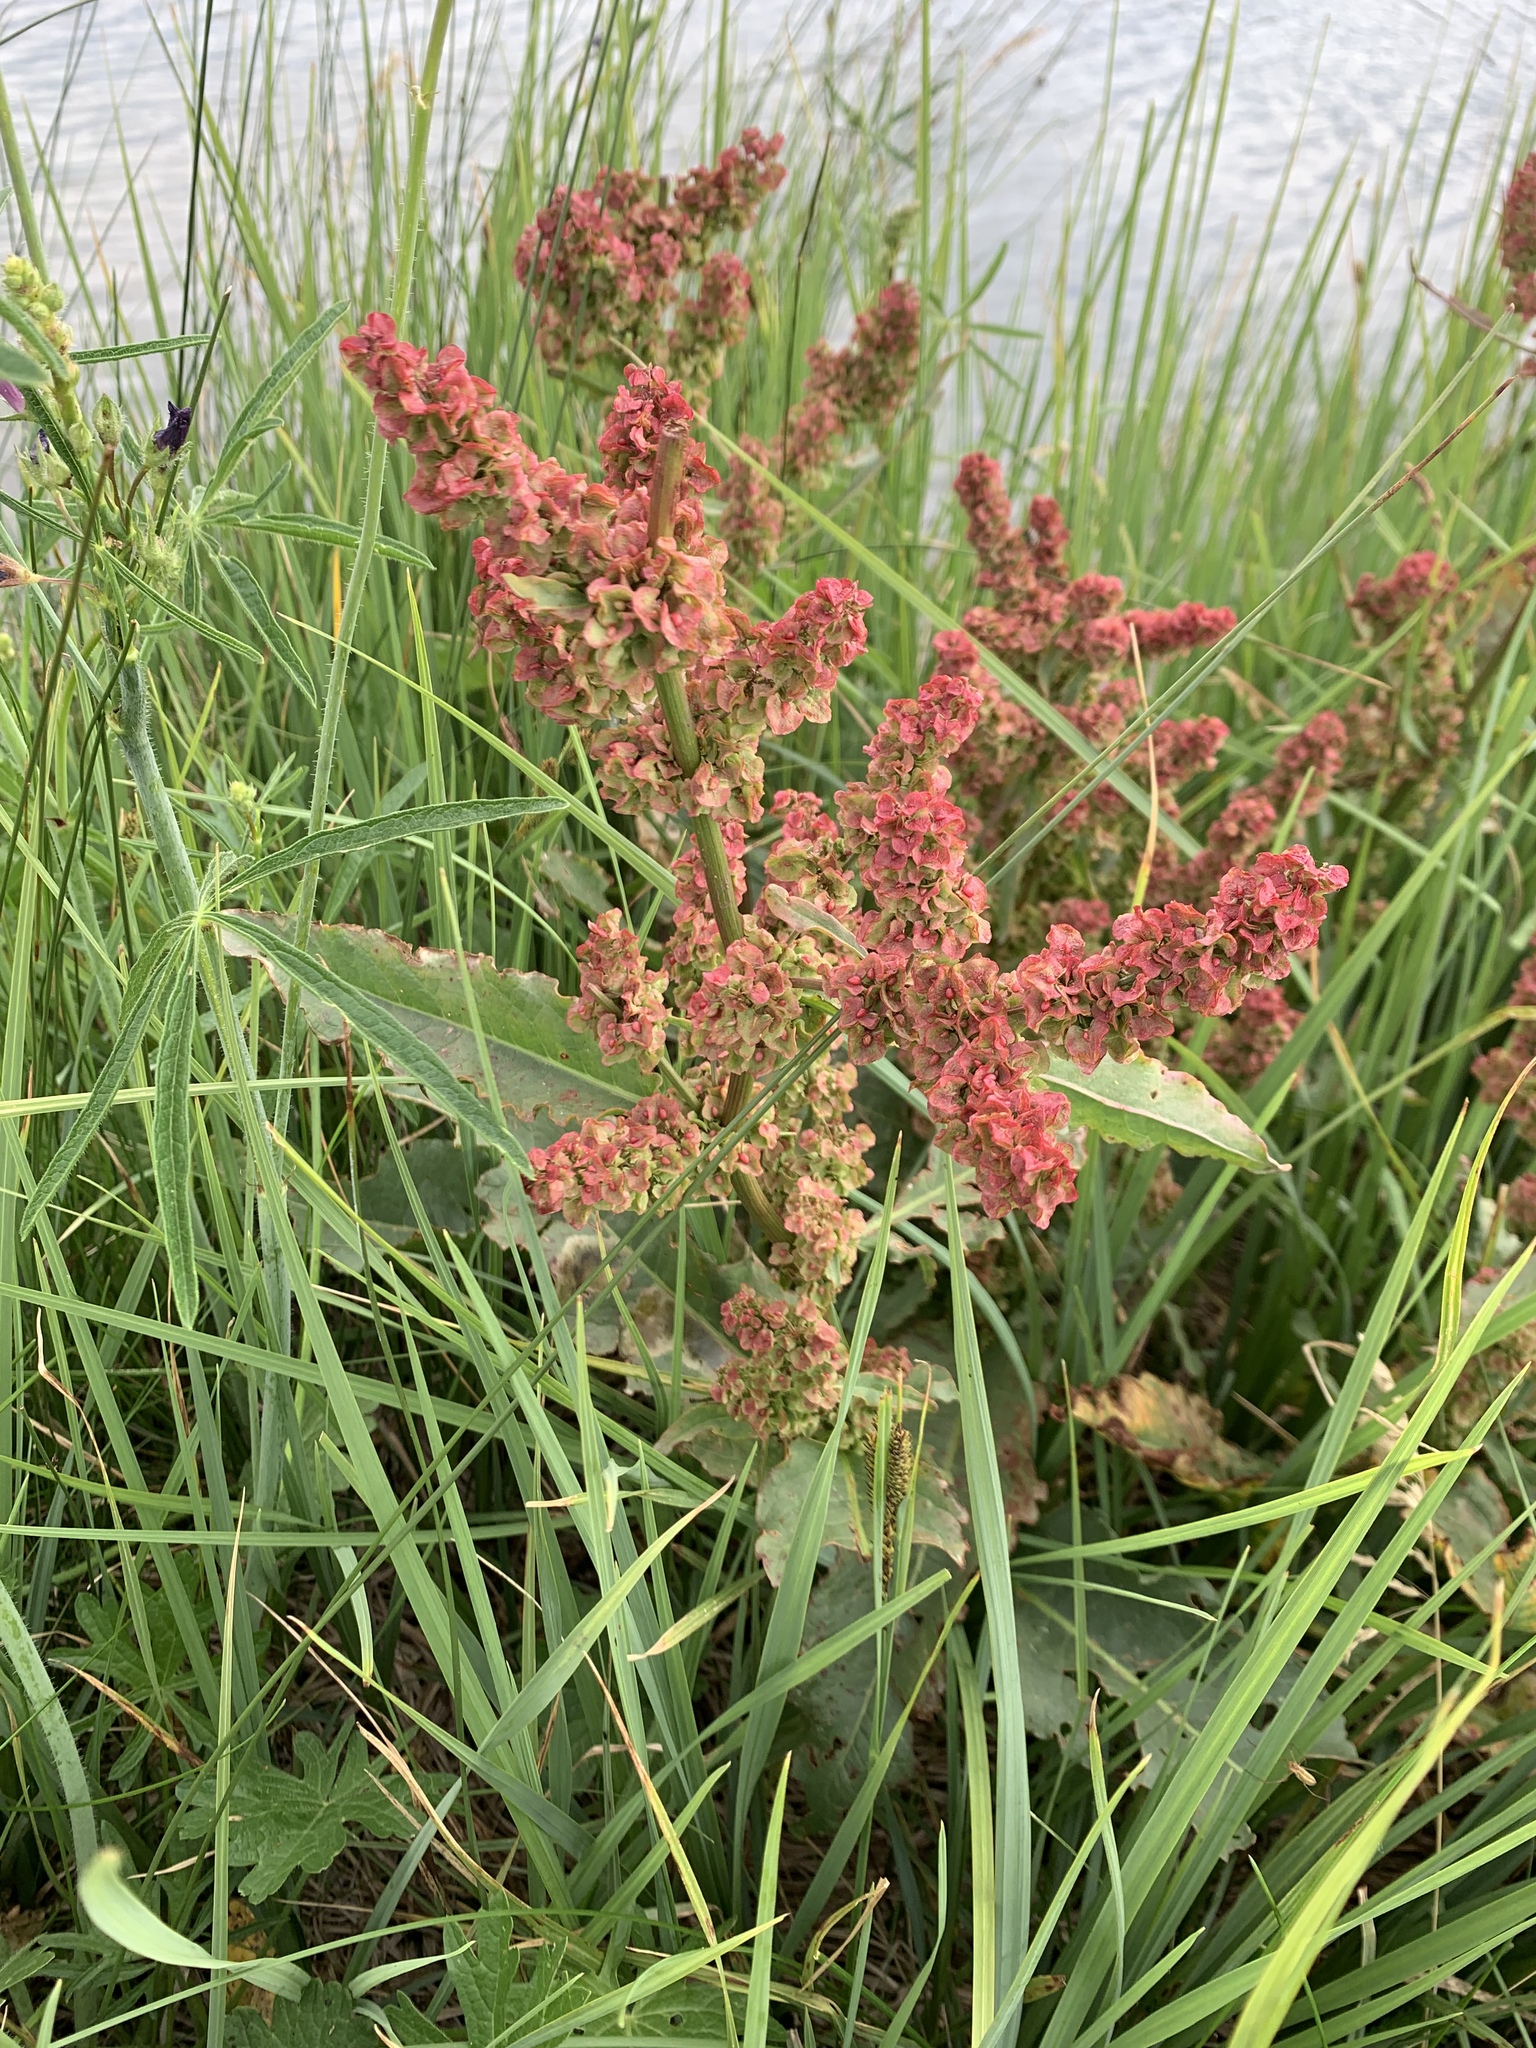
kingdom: Plantae
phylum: Tracheophyta
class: Magnoliopsida
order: Caryophyllales
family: Polygonaceae
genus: Rumex
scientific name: Rumex crispus
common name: Curled dock
